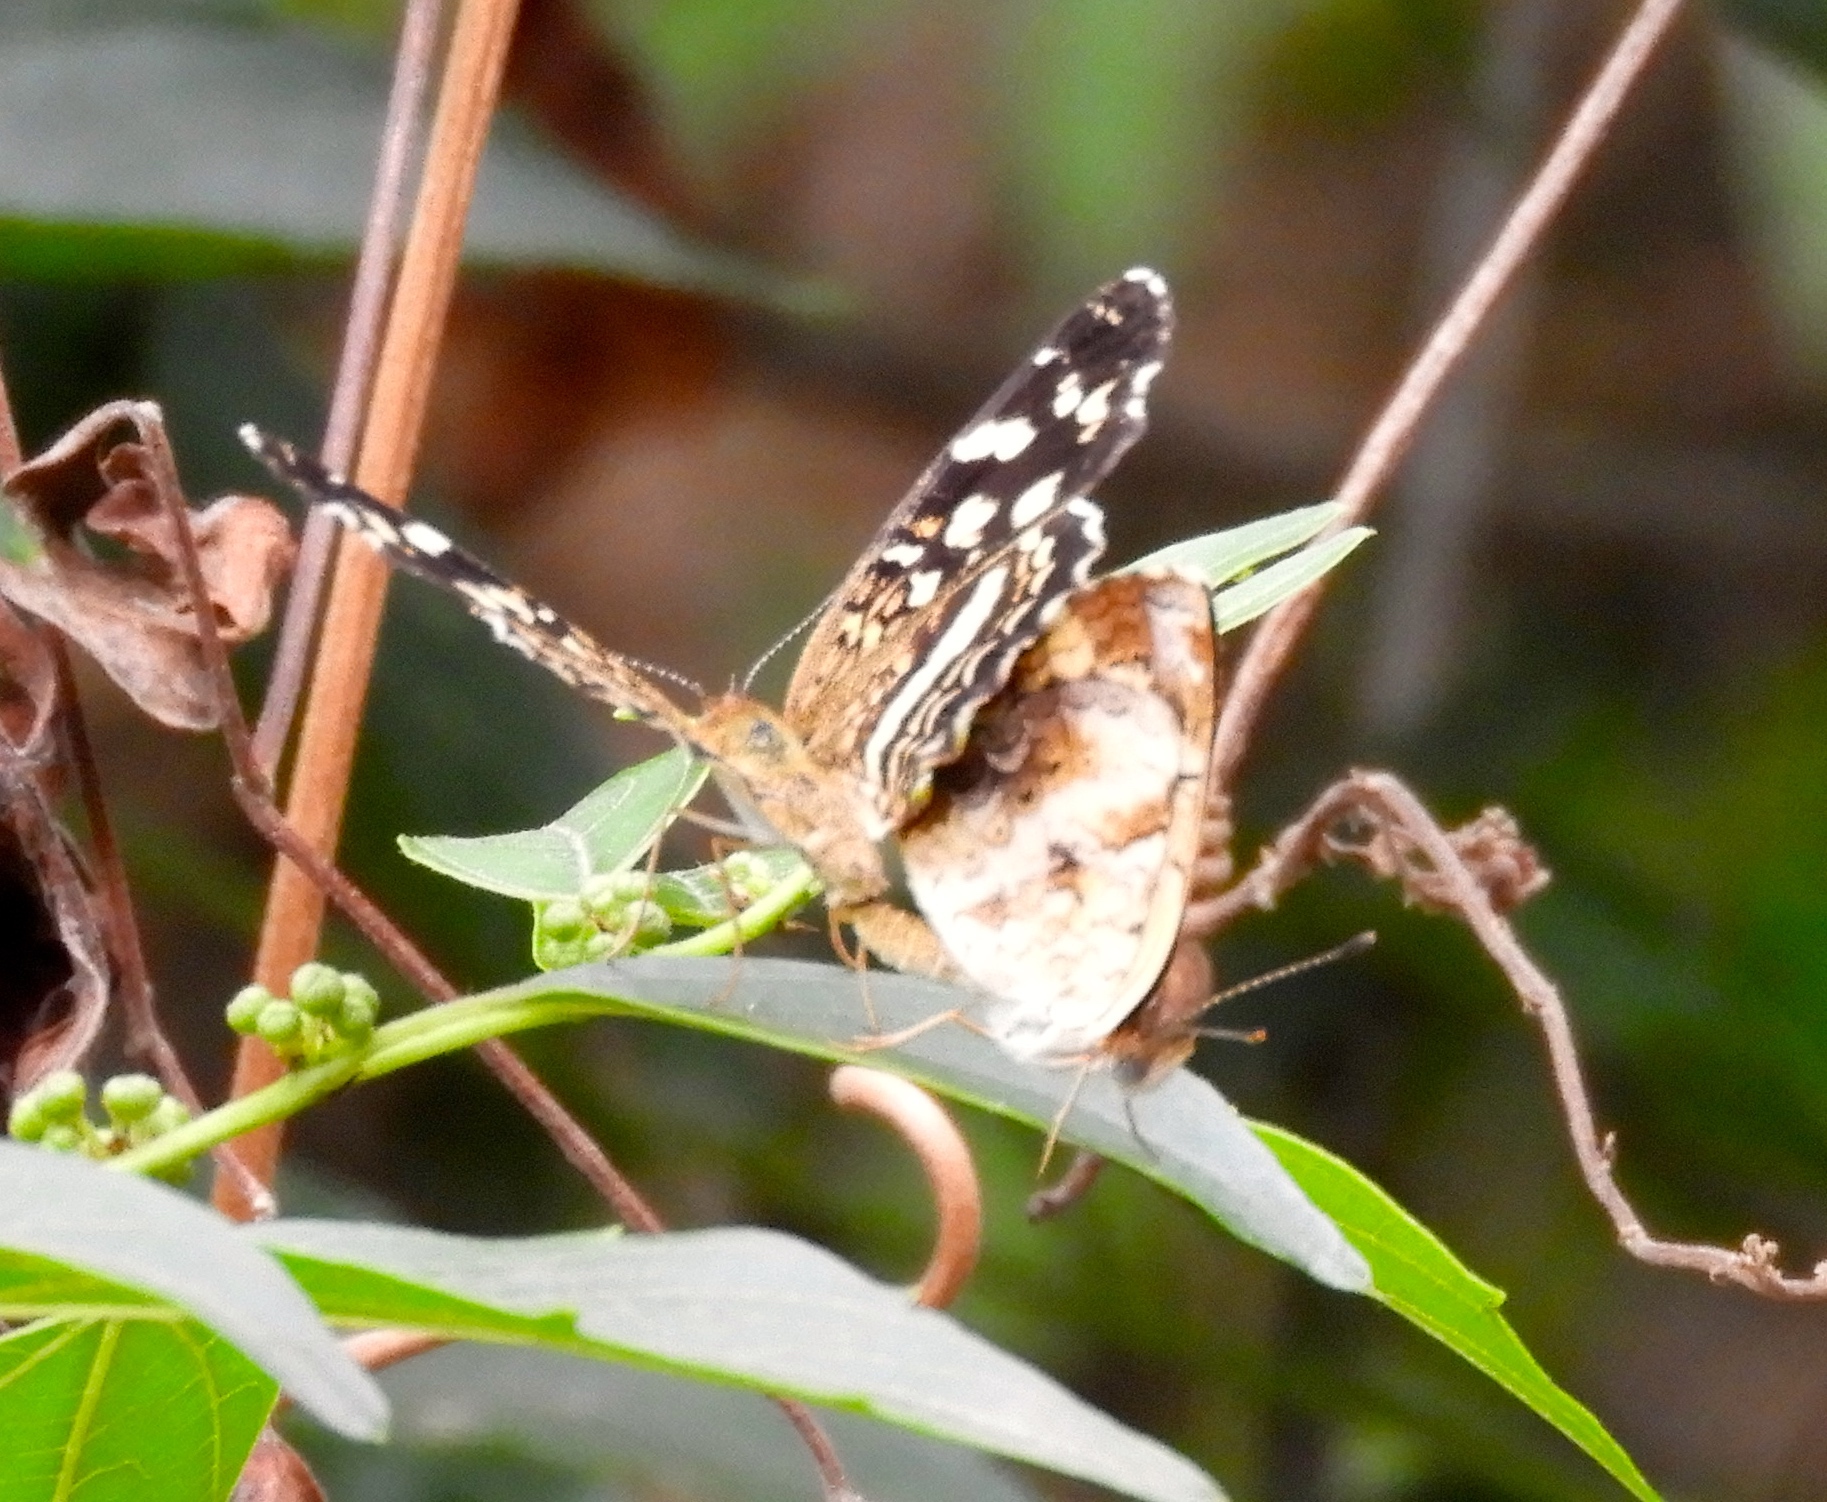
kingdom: Animalia
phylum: Arthropoda
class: Insecta
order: Lepidoptera
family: Nymphalidae
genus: Anthanassa
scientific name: Anthanassa
